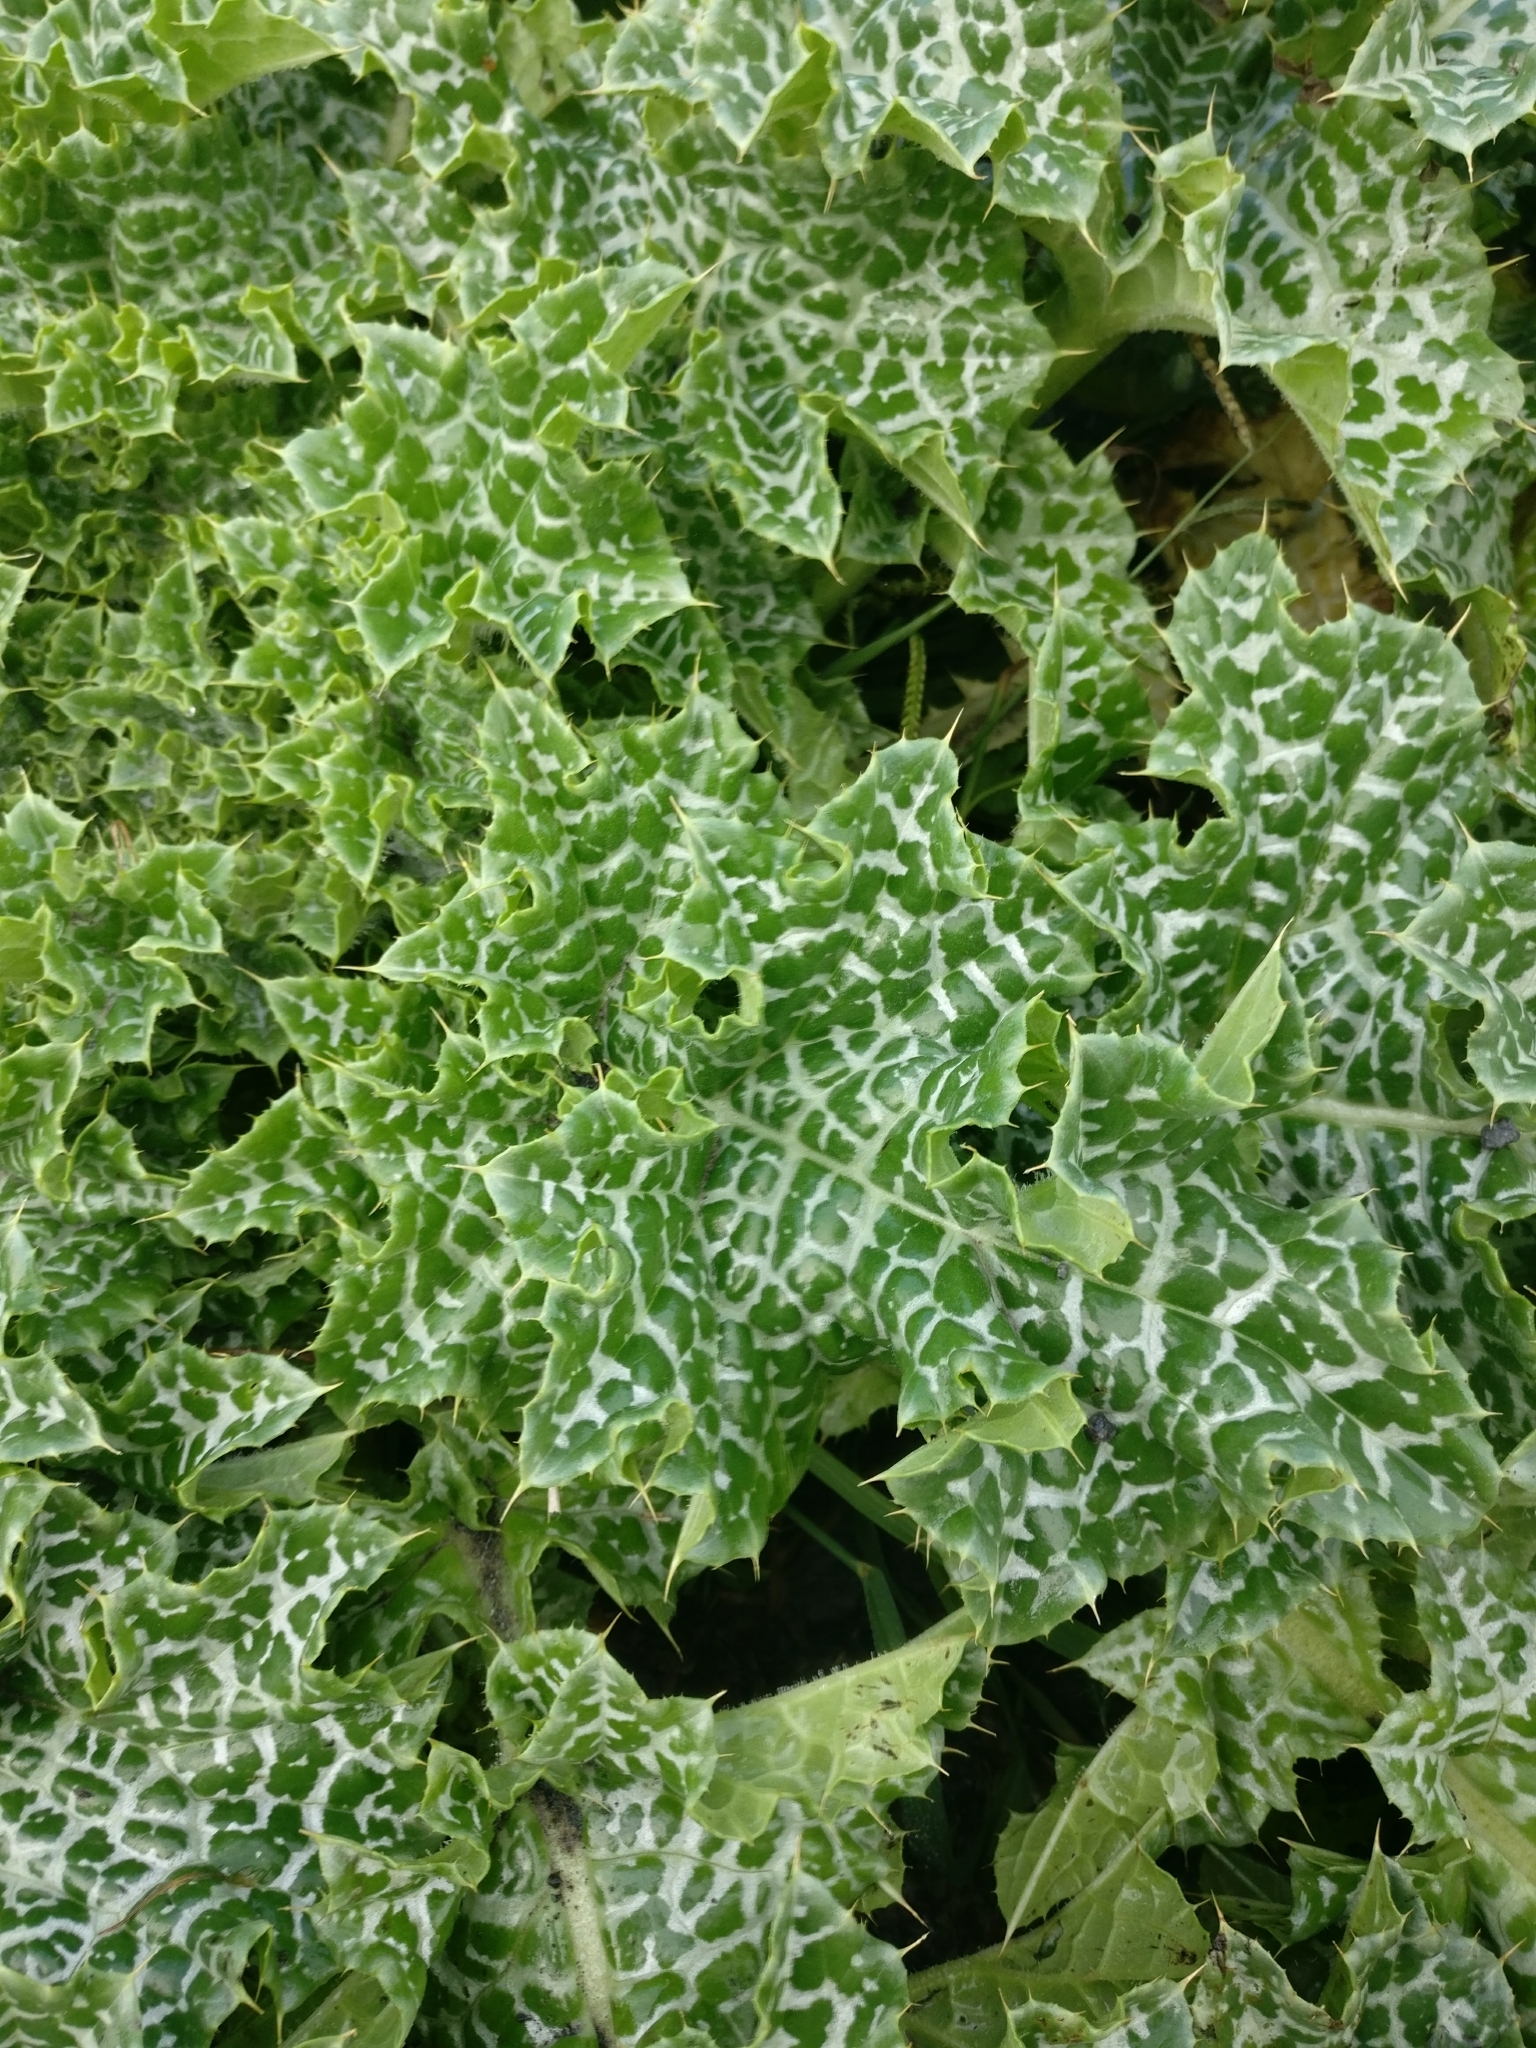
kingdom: Plantae
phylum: Tracheophyta
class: Magnoliopsida
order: Asterales
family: Asteraceae
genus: Silybum
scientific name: Silybum marianum
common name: Milk thistle
